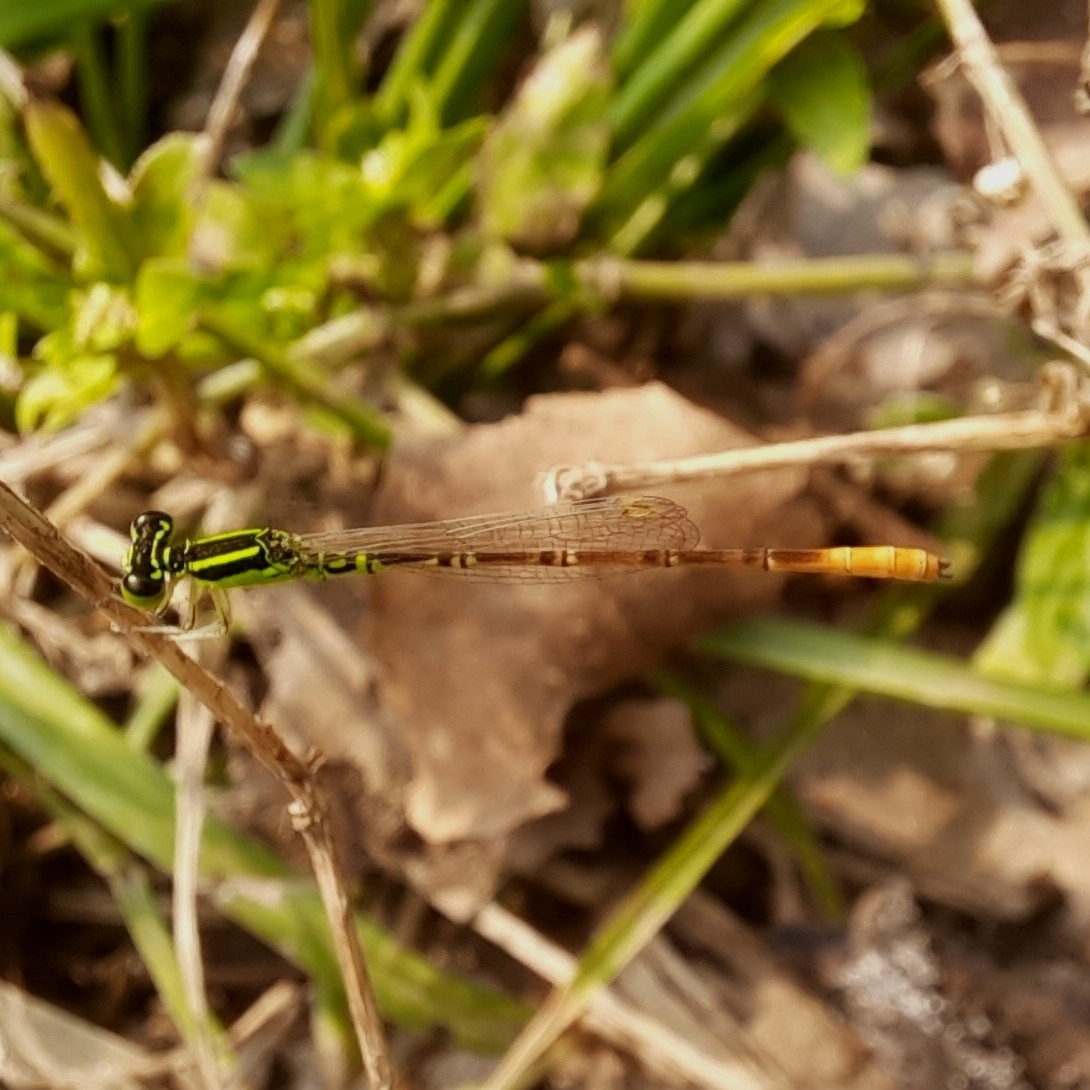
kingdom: Animalia
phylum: Arthropoda
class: Insecta
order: Odonata
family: Coenagrionidae
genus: Agriocnemis
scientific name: Agriocnemis keralensis
